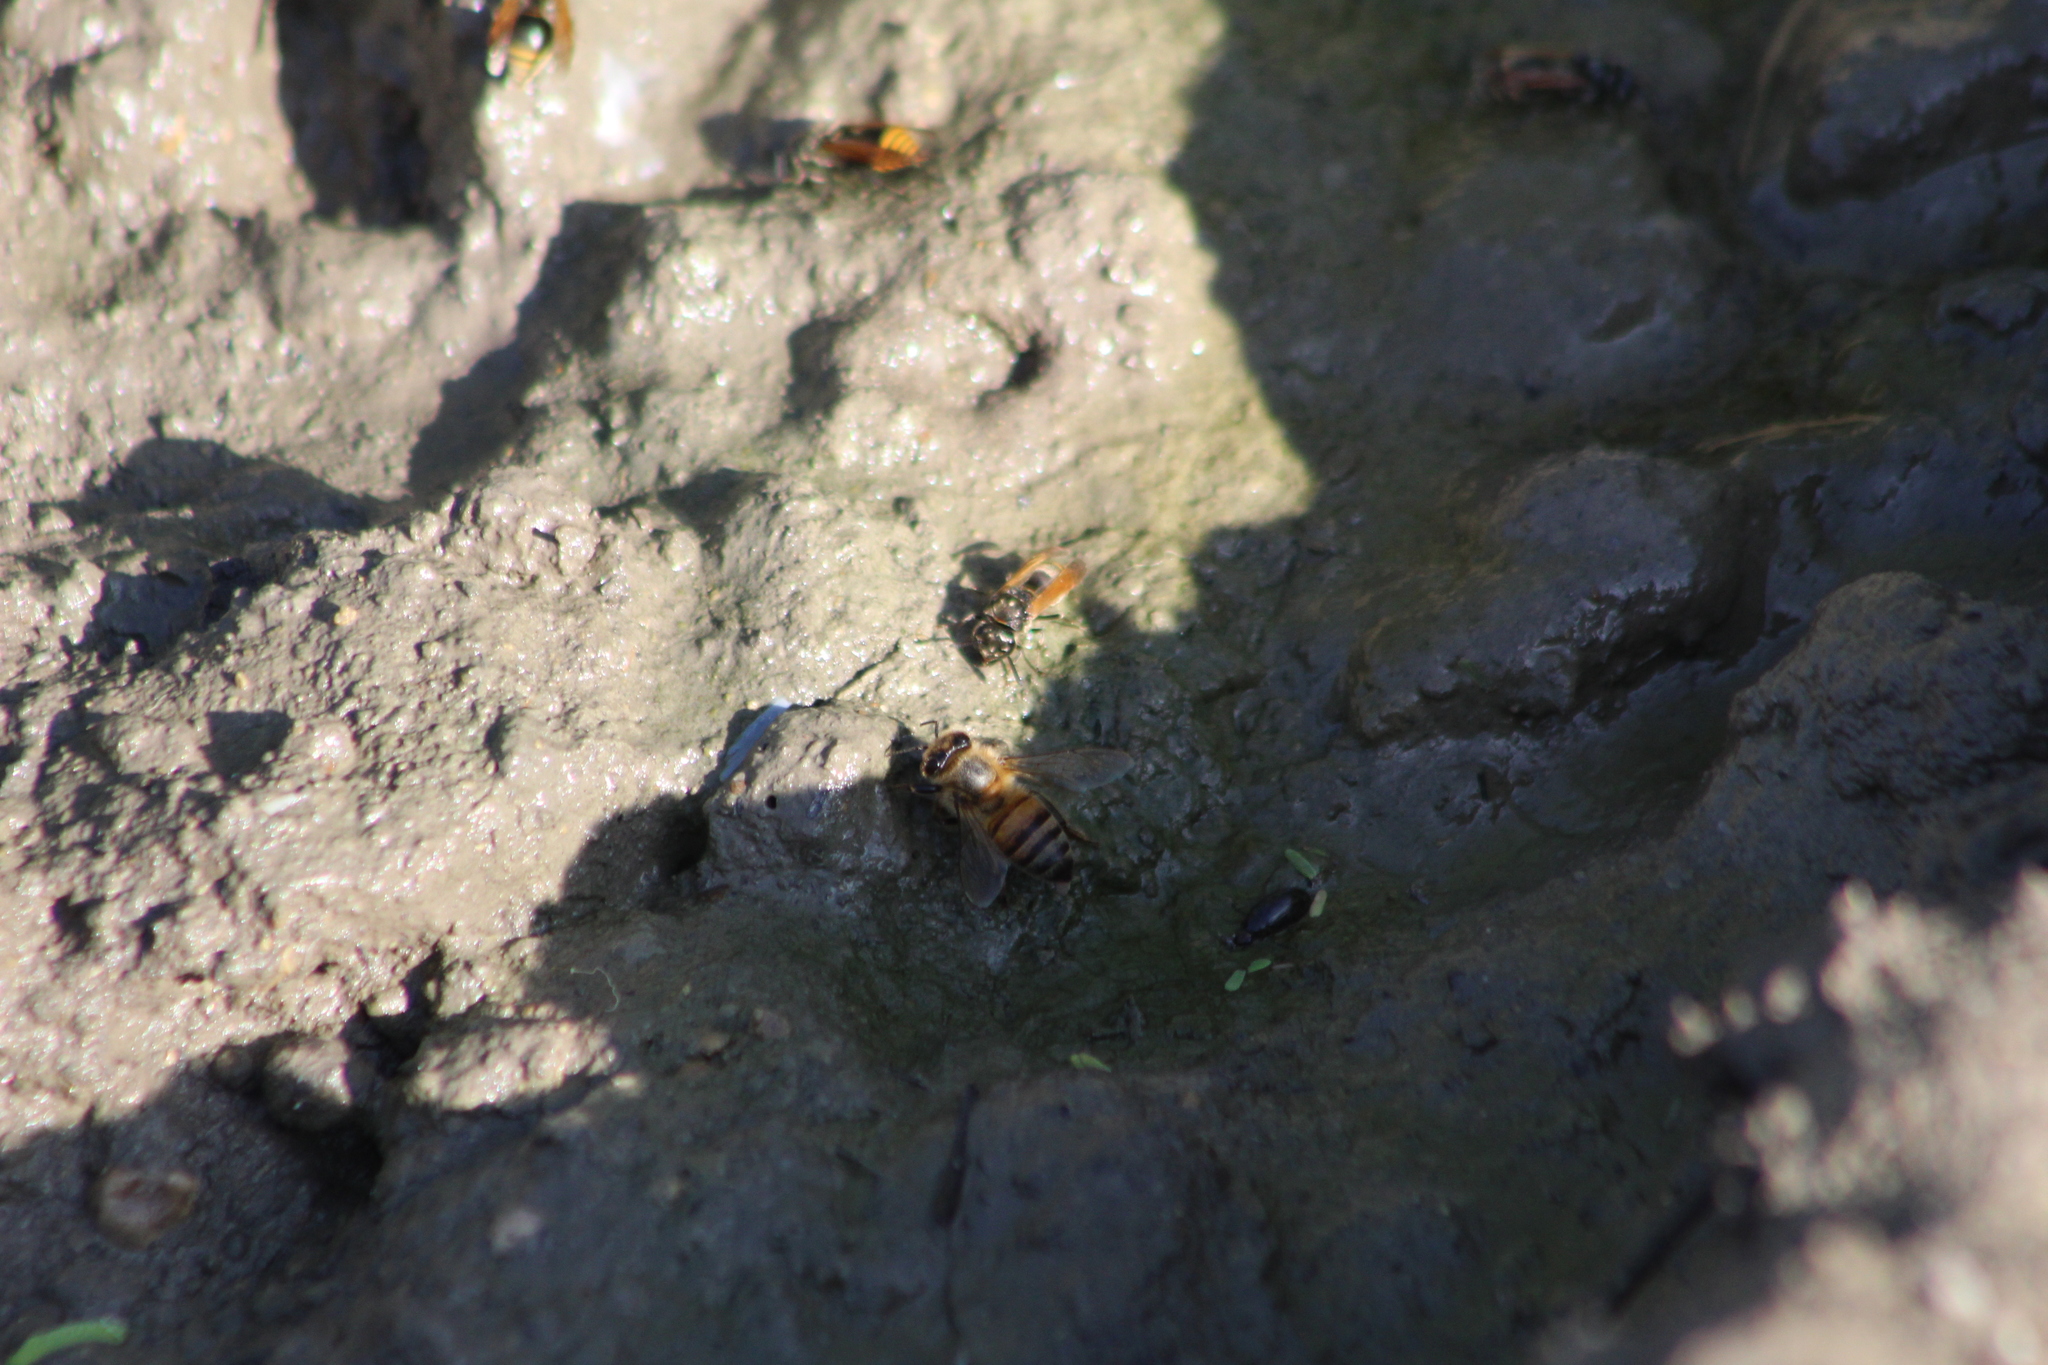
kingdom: Animalia
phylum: Arthropoda
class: Insecta
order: Hymenoptera
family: Apidae
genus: Apis
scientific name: Apis mellifera
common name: Honey bee
